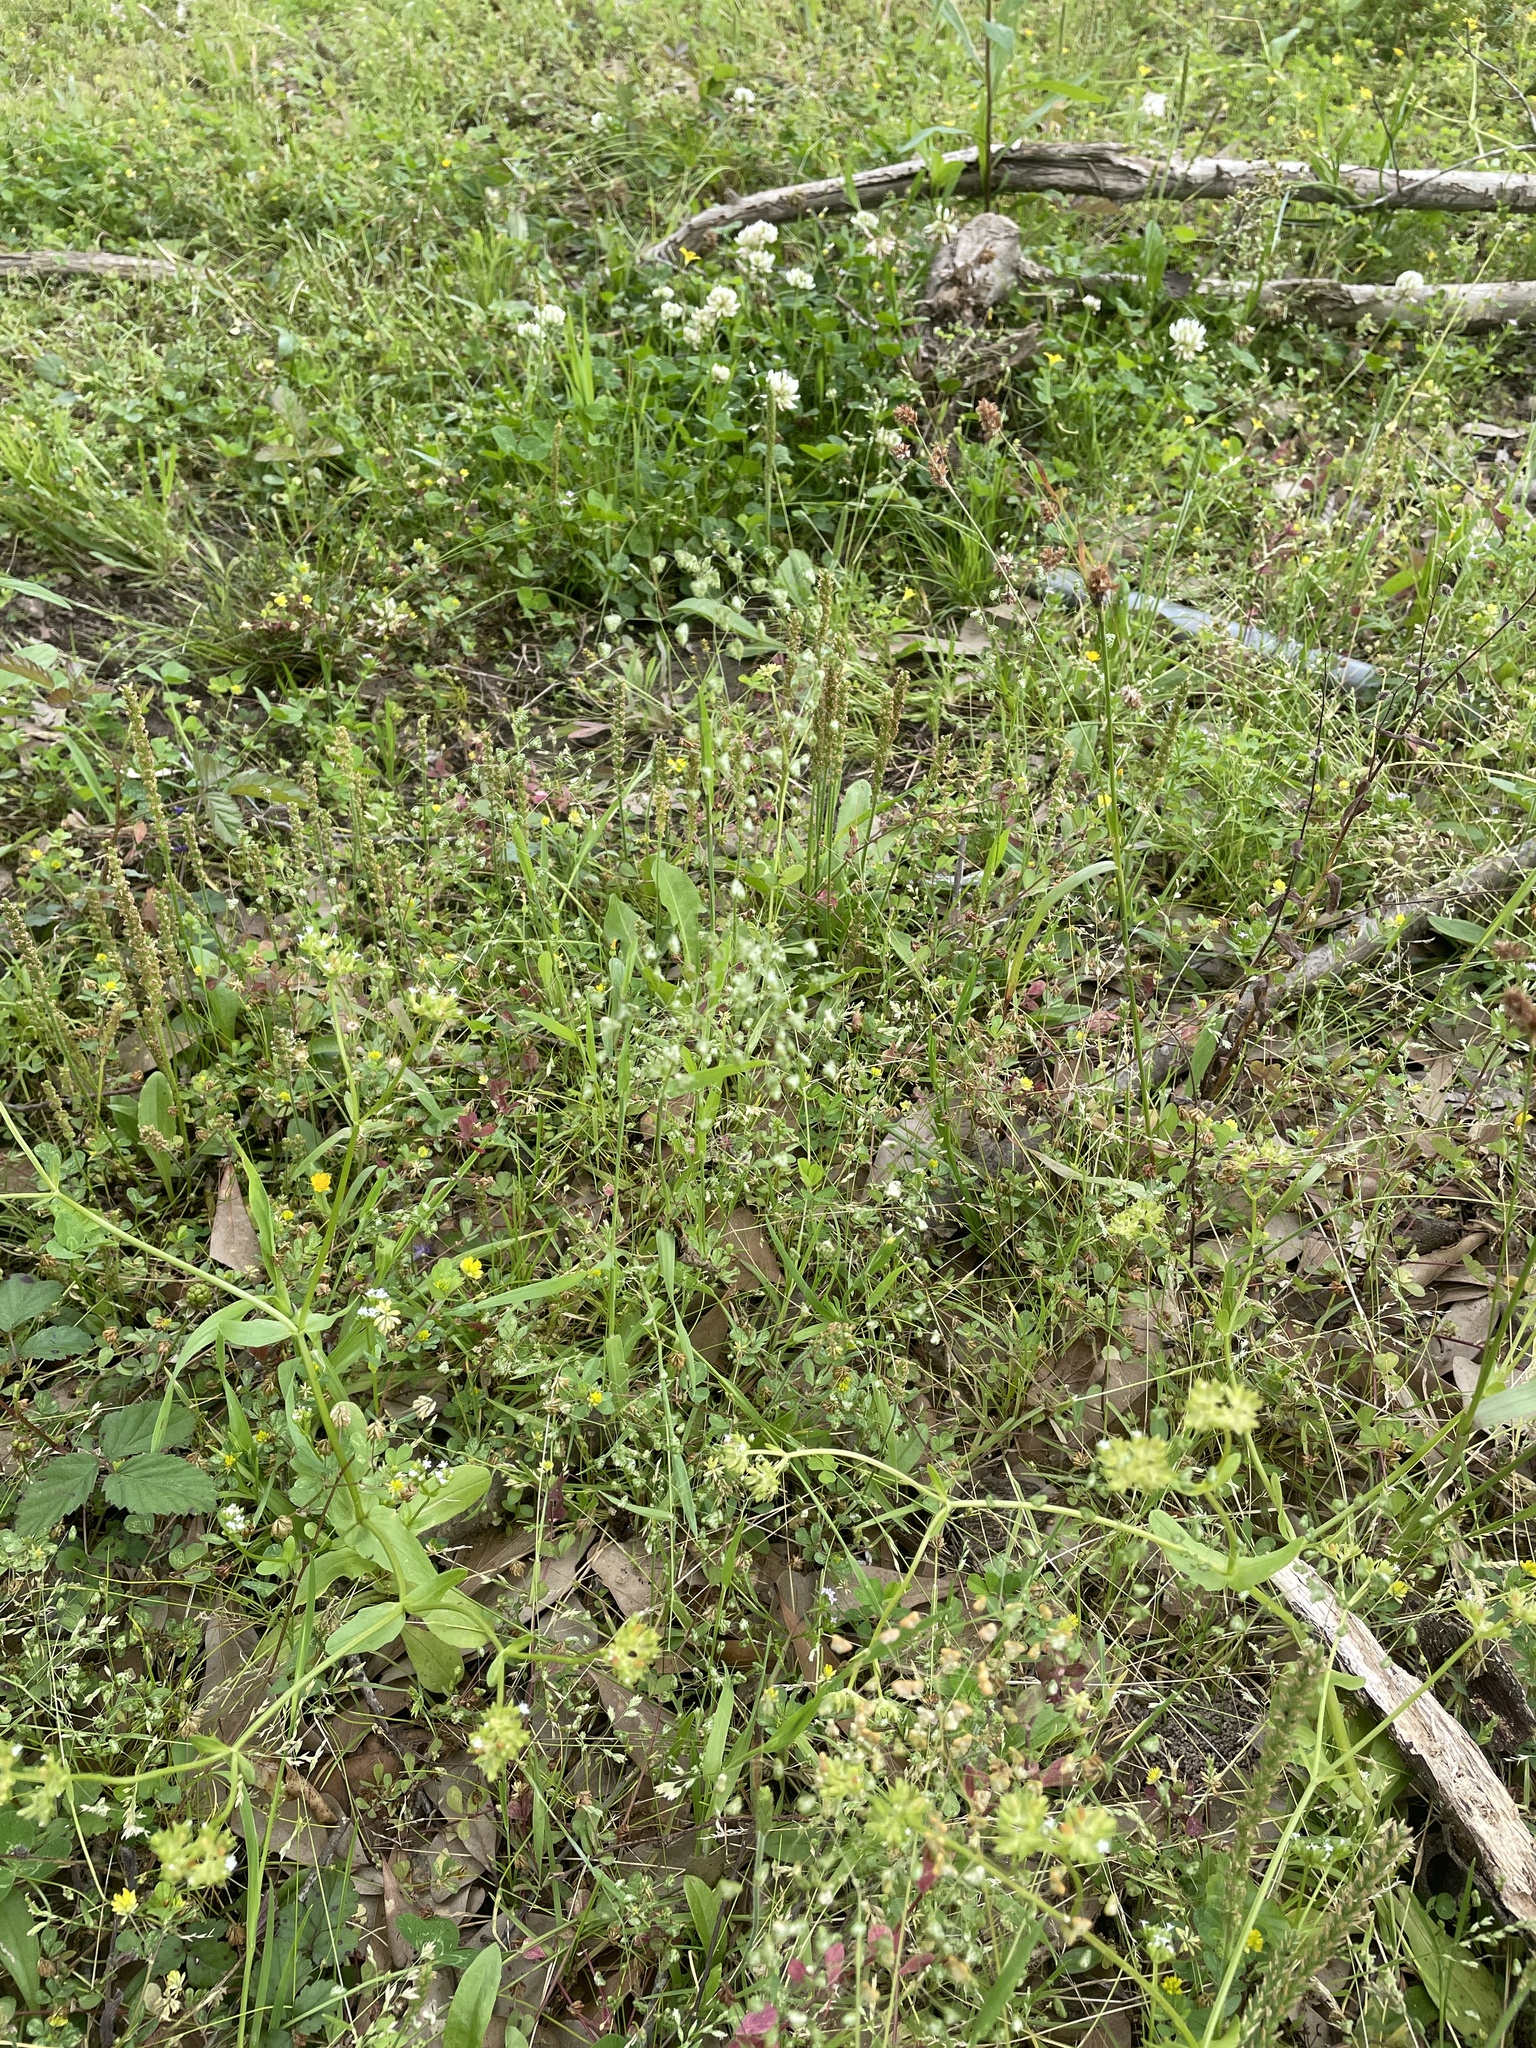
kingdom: Plantae
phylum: Tracheophyta
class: Liliopsida
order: Poales
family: Poaceae
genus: Briza
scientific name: Briza minor
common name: Lesser quaking-grass
